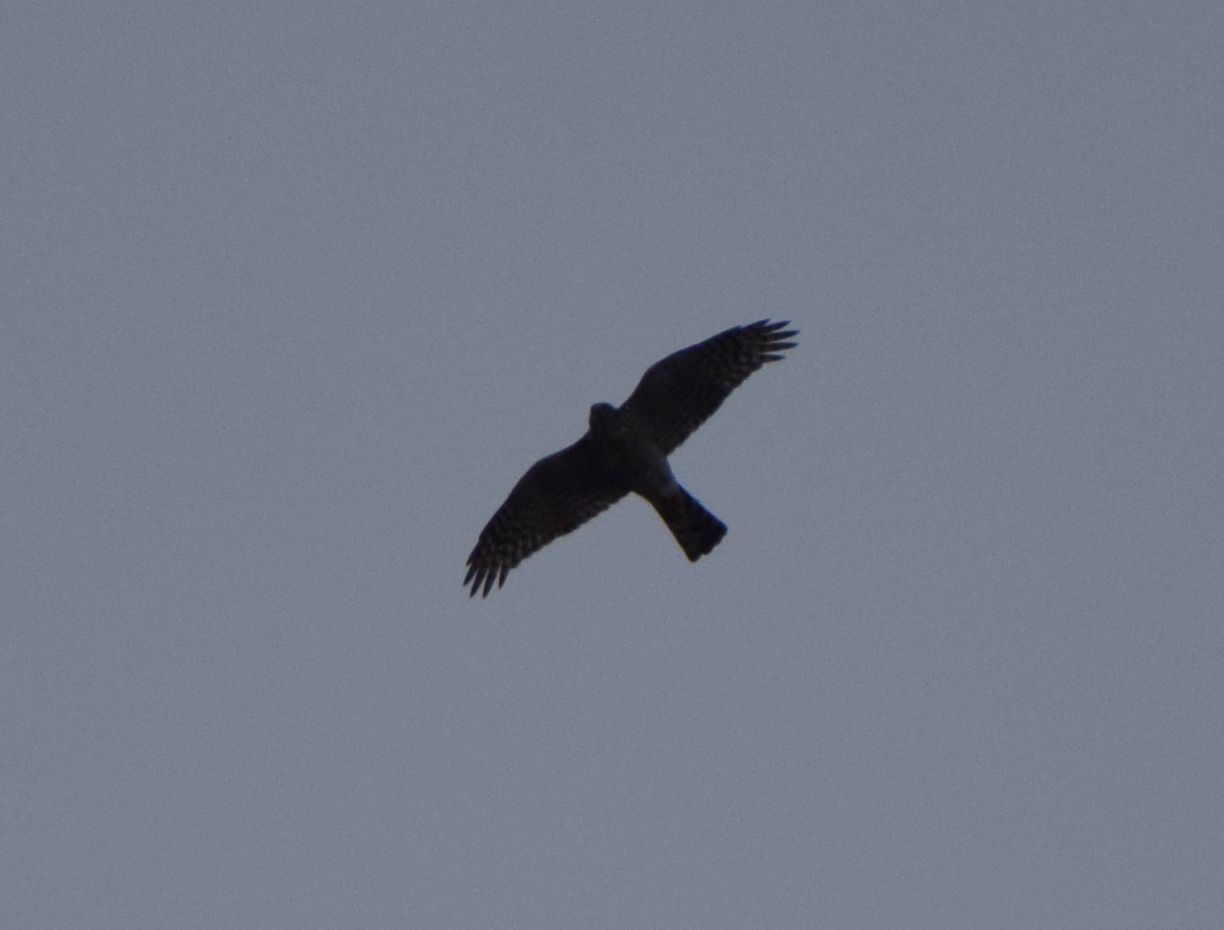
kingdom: Animalia
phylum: Chordata
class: Aves
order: Accipitriformes
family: Accipitridae
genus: Accipiter
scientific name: Accipiter nisus
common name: Eurasian sparrowhawk
